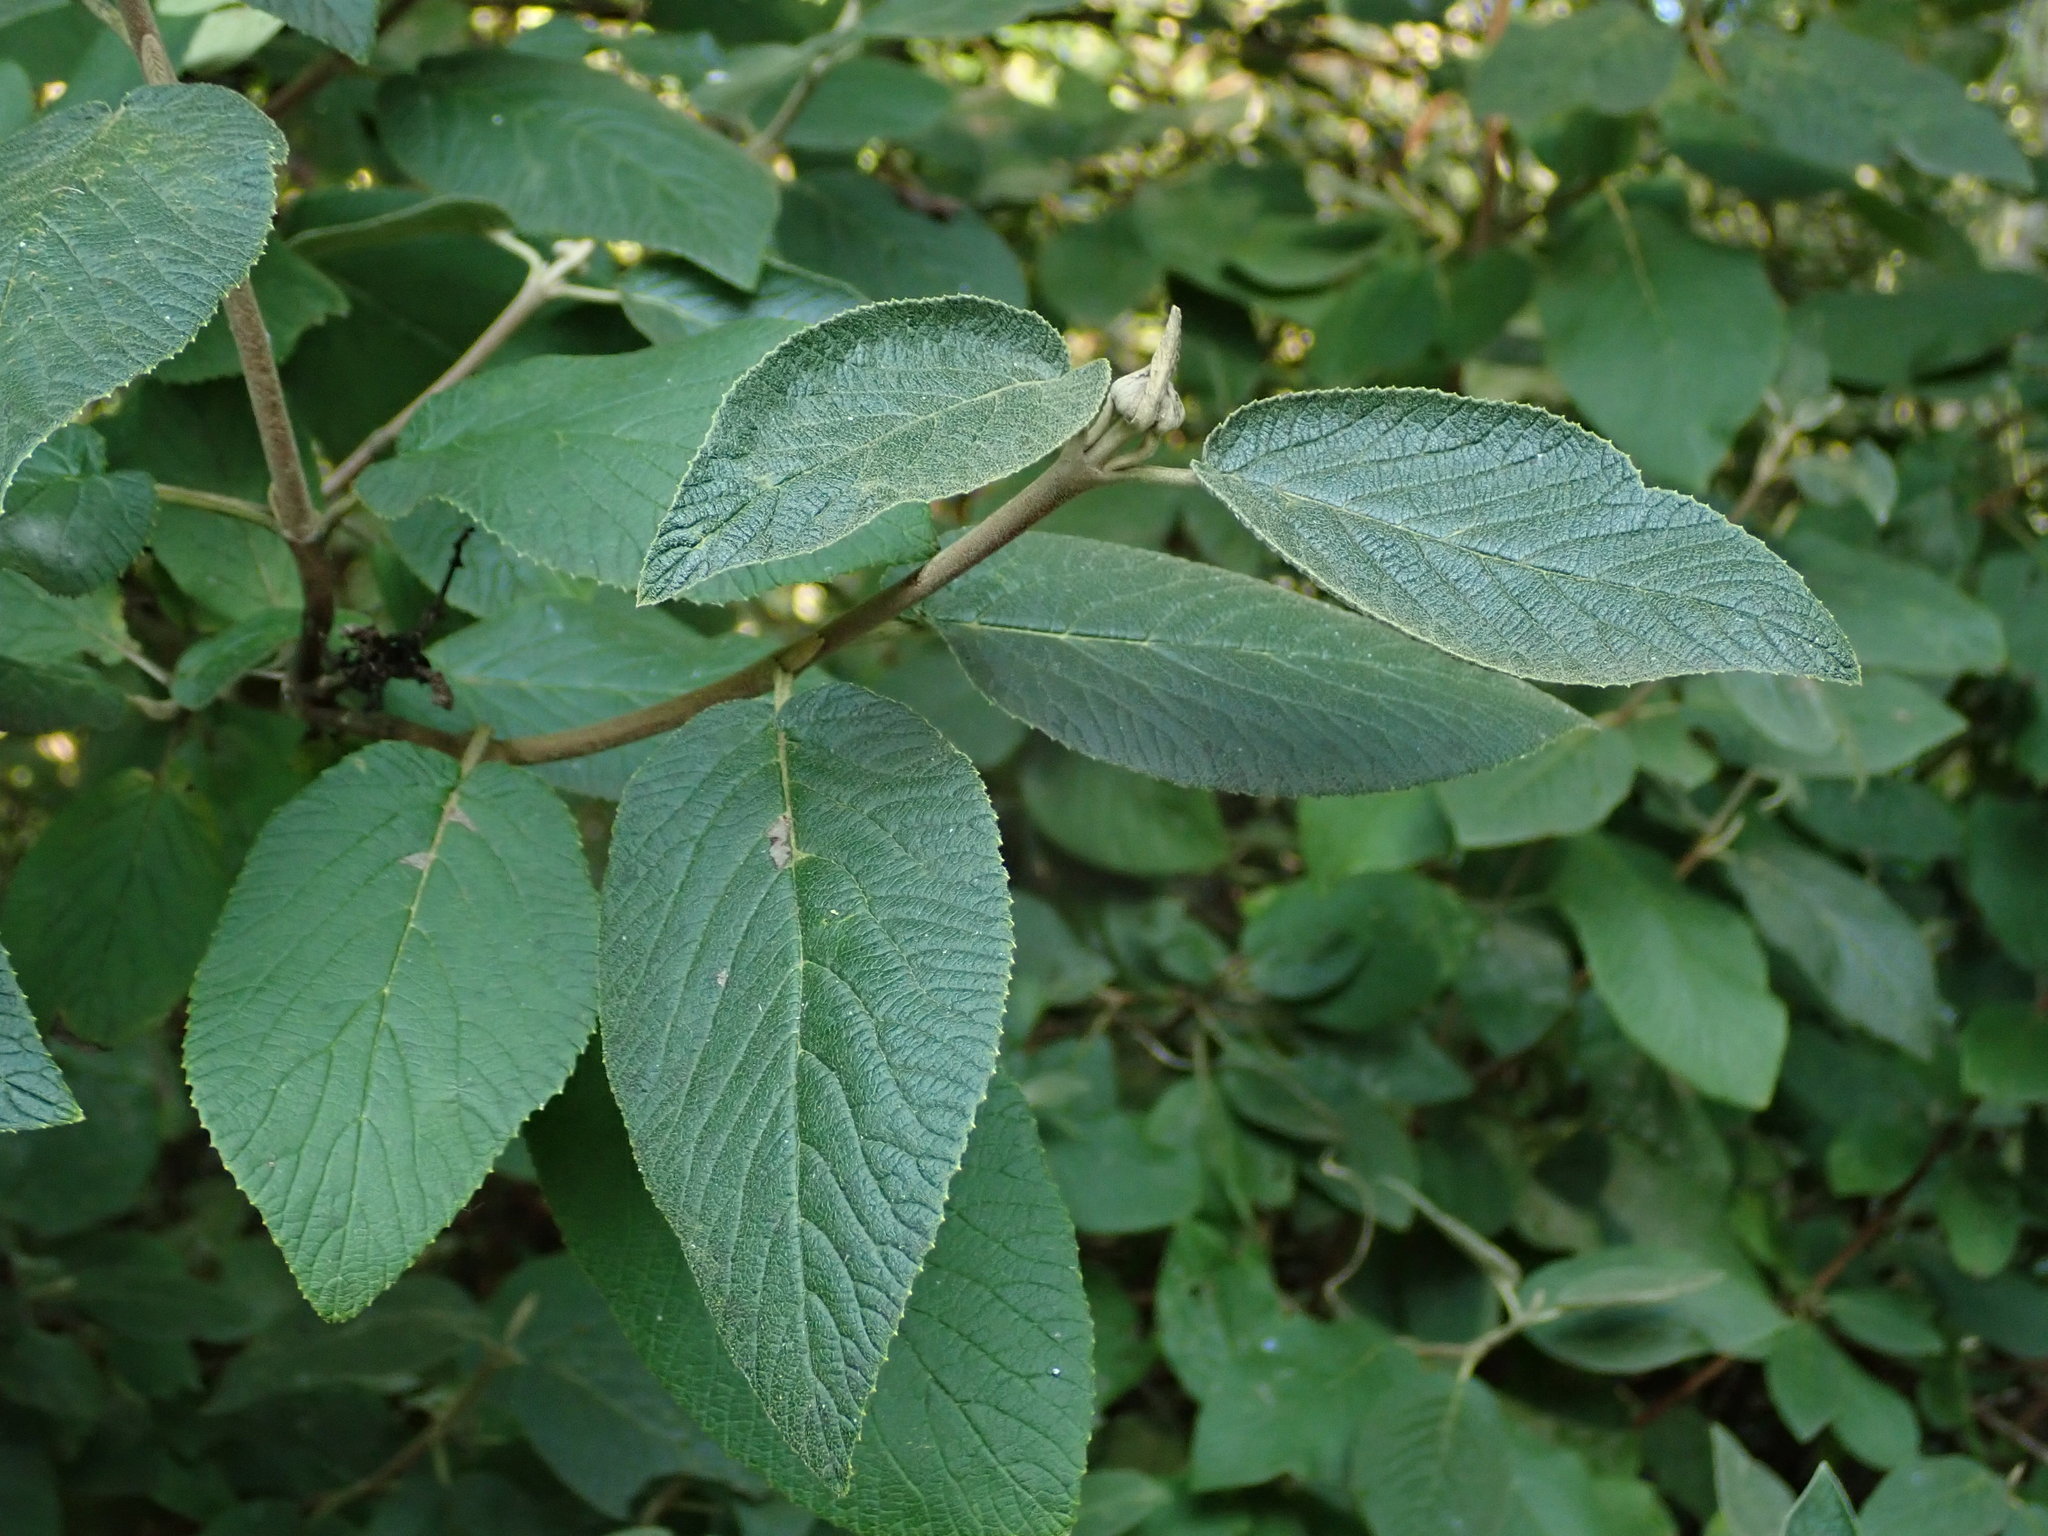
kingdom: Plantae
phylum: Tracheophyta
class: Magnoliopsida
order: Dipsacales
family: Viburnaceae
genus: Viburnum
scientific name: Viburnum lantana
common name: Wayfaring tree
